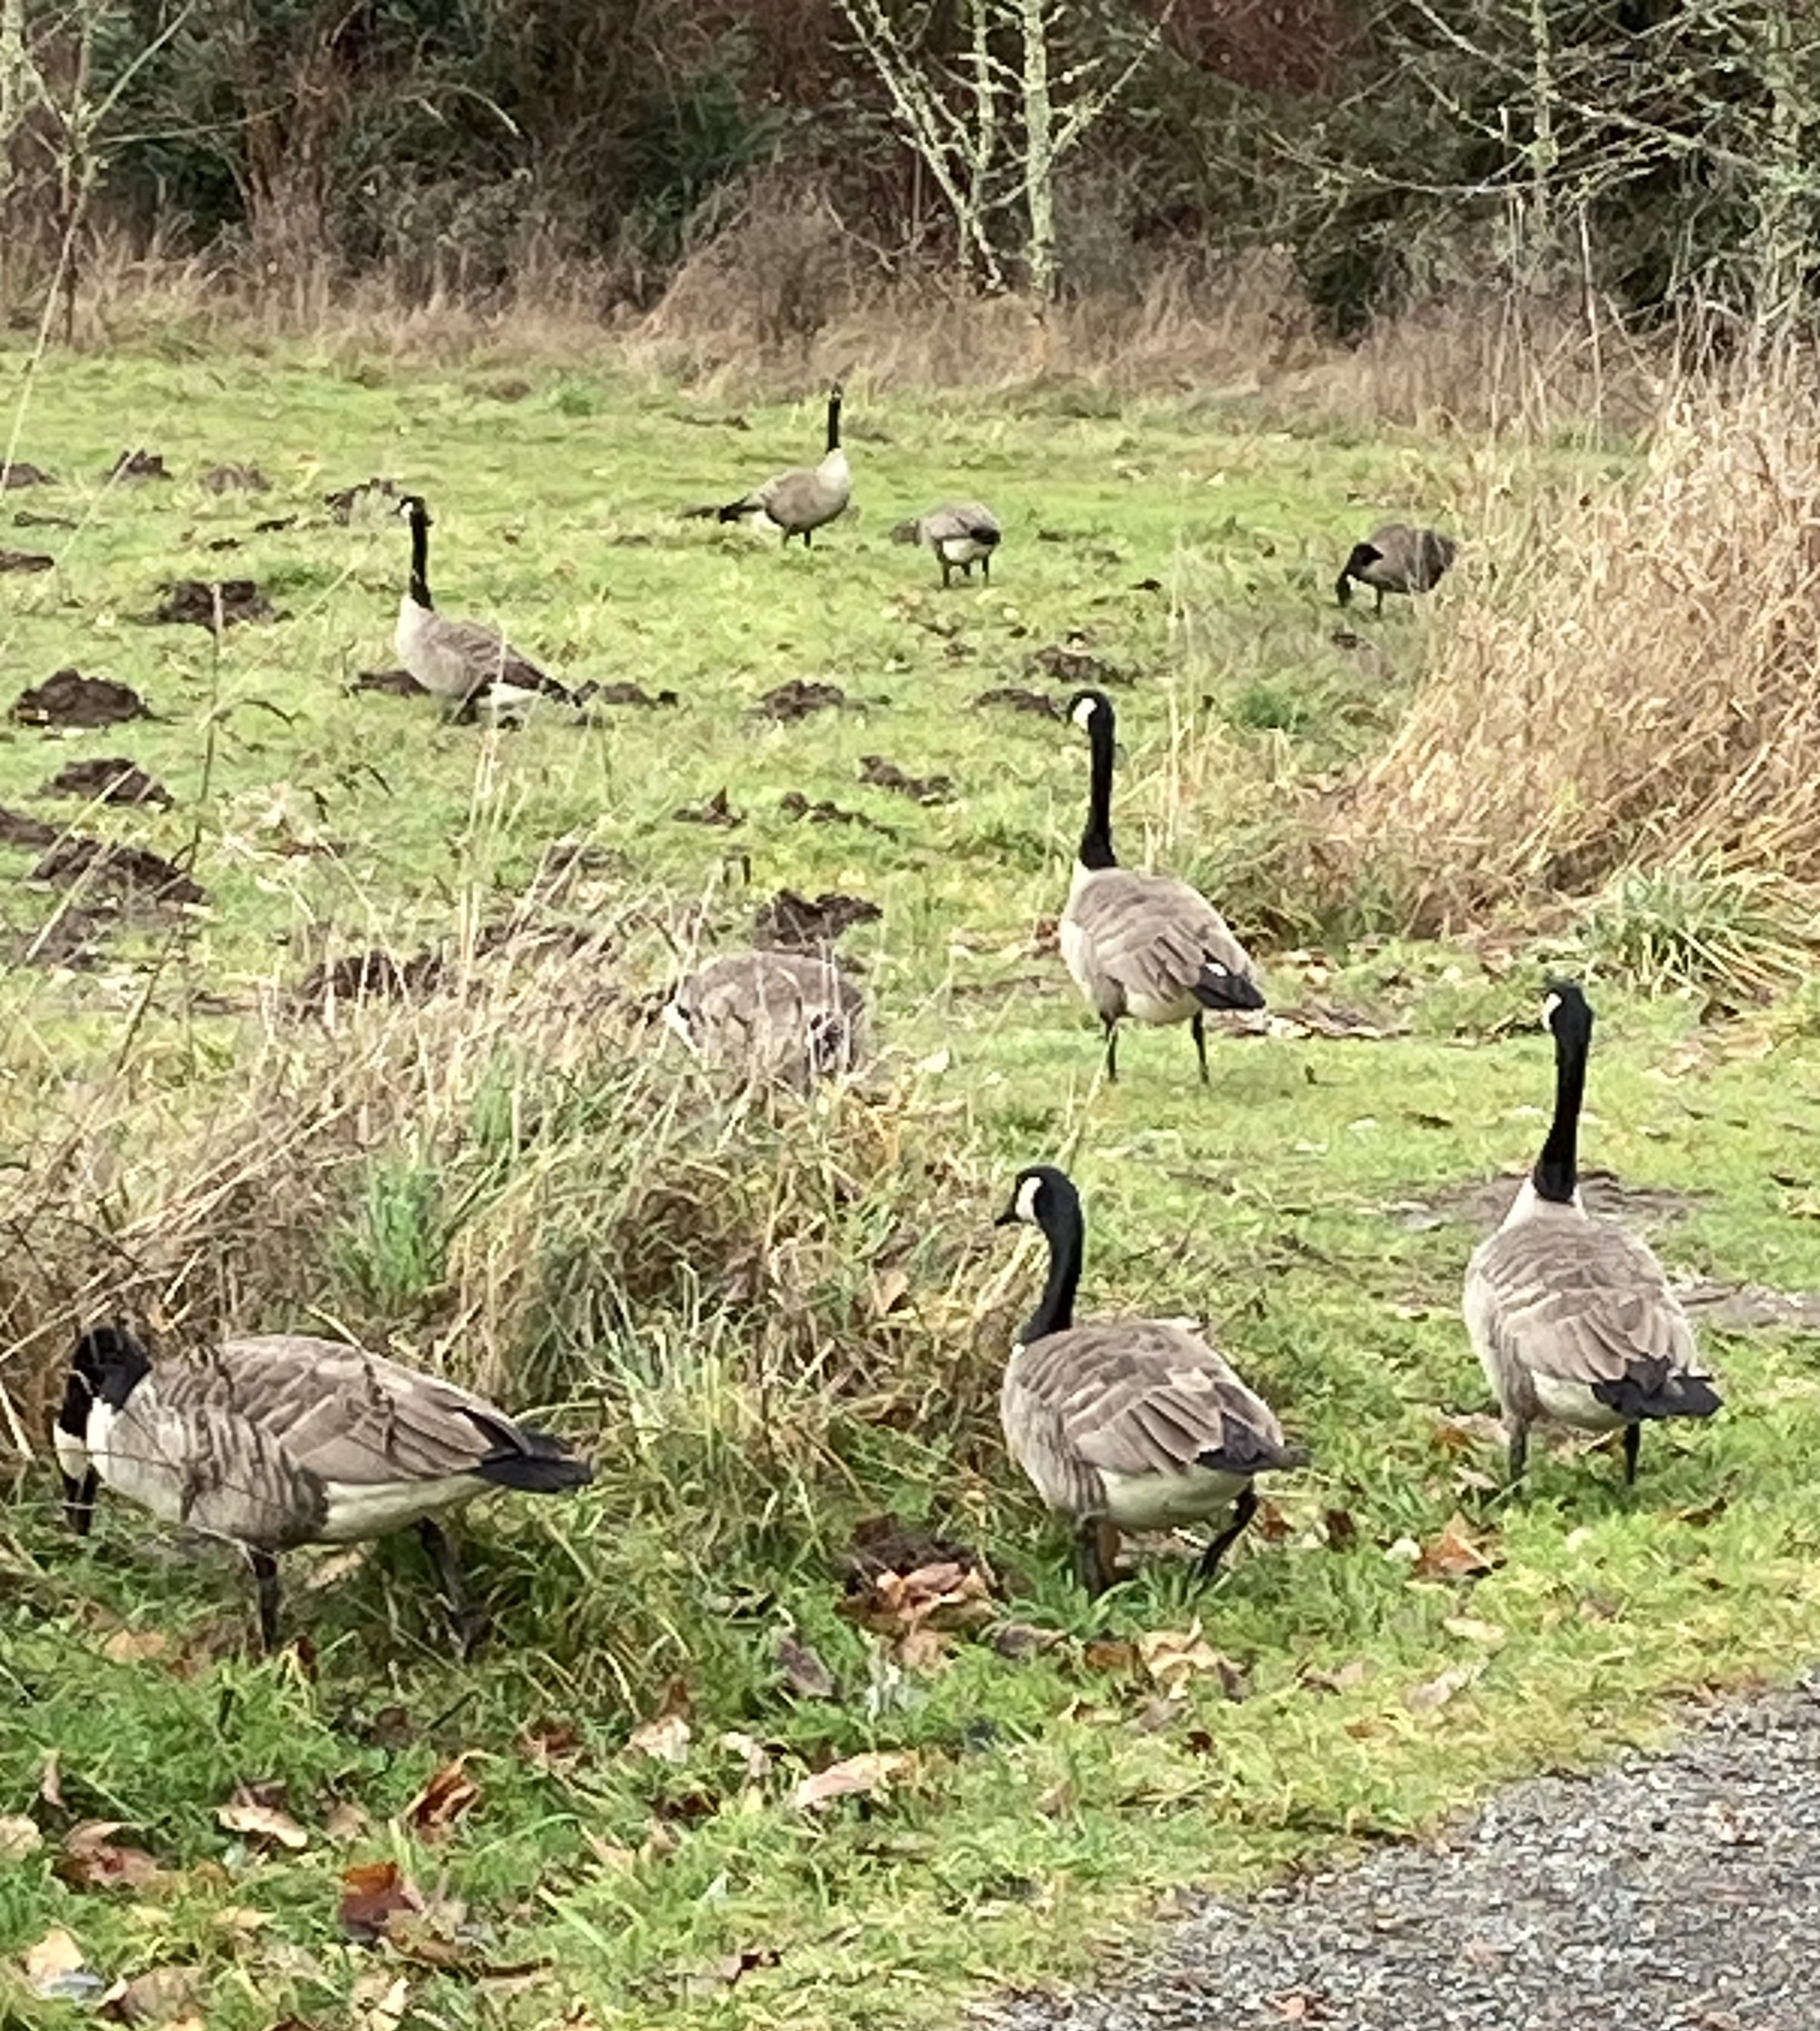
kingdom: Animalia
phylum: Chordata
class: Aves
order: Anseriformes
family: Anatidae
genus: Branta
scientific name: Branta canadensis
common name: Canada goose
